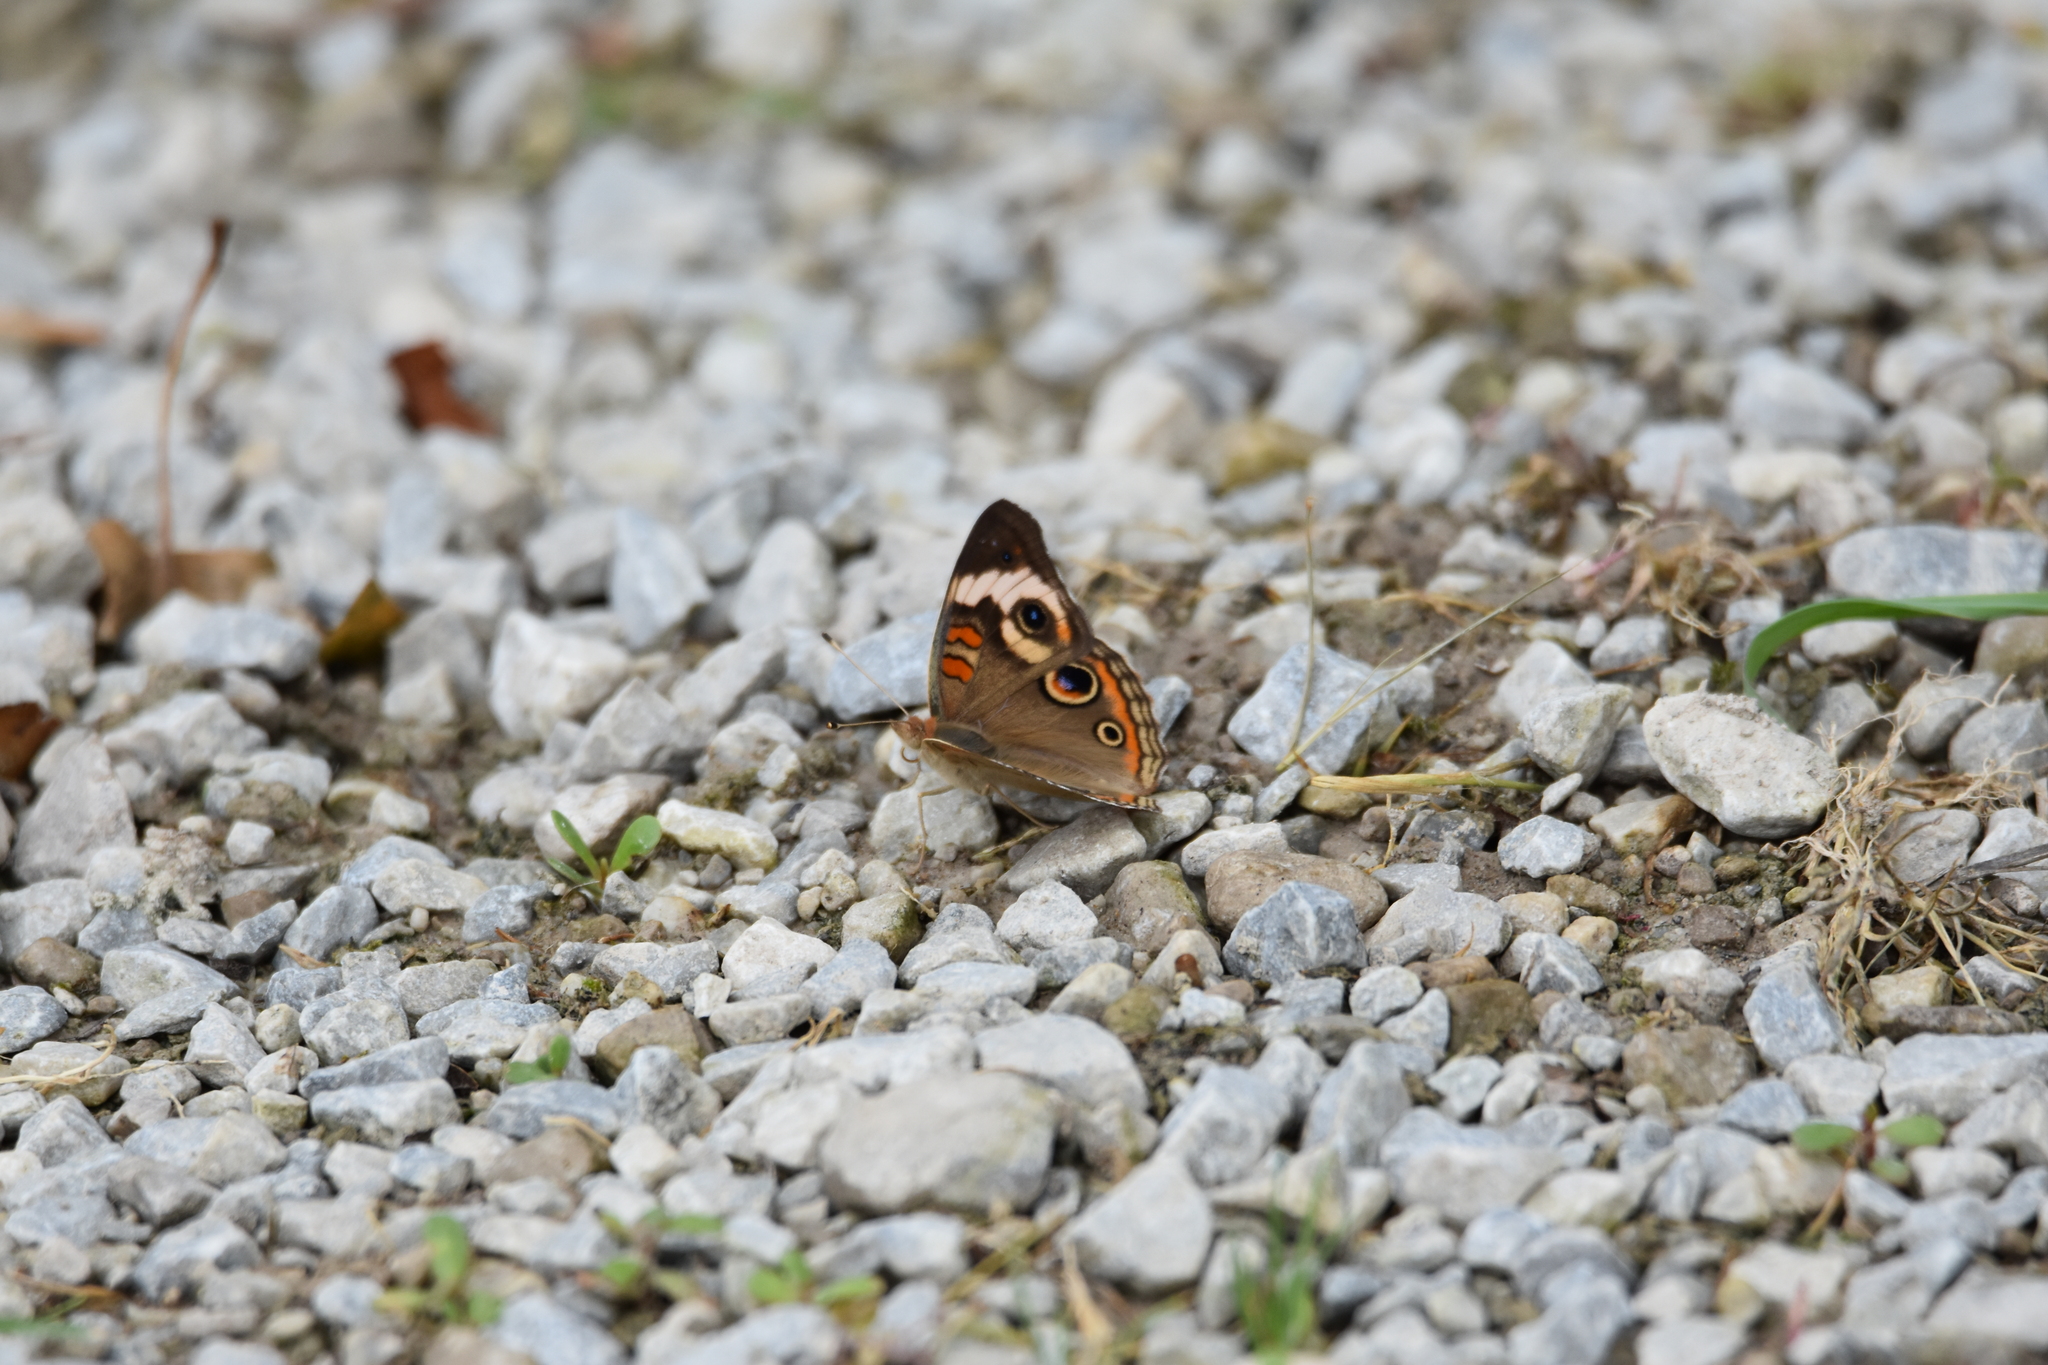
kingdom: Animalia
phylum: Arthropoda
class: Insecta
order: Lepidoptera
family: Nymphalidae
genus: Junonia
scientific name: Junonia coenia
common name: Common buckeye
